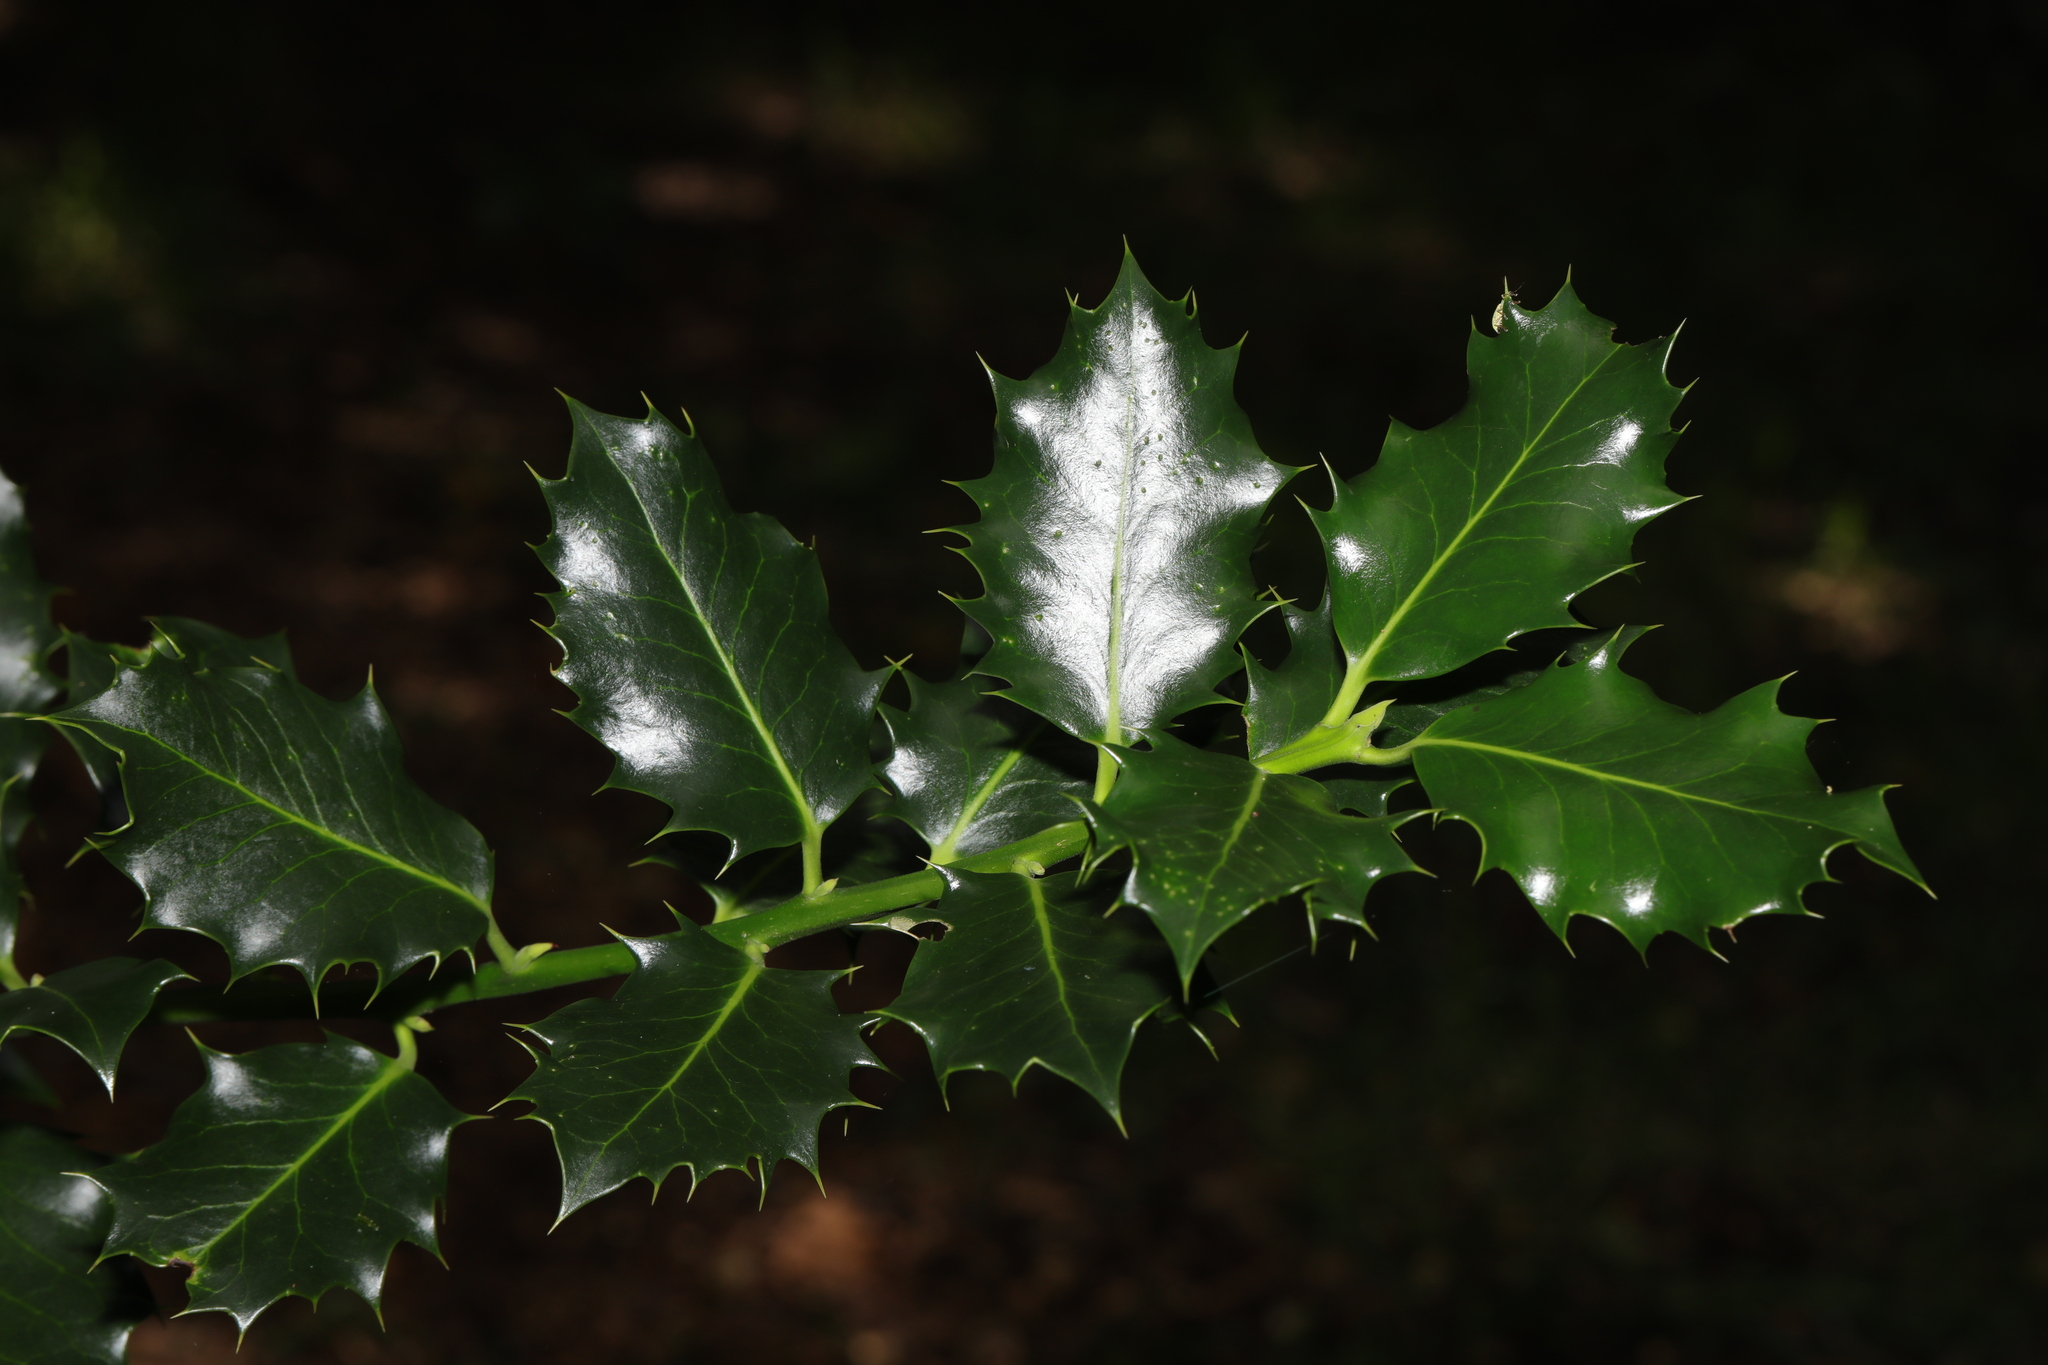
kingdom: Plantae
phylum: Tracheophyta
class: Magnoliopsida
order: Aquifoliales
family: Aquifoliaceae
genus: Ilex
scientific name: Ilex aquifolium
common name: English holly
